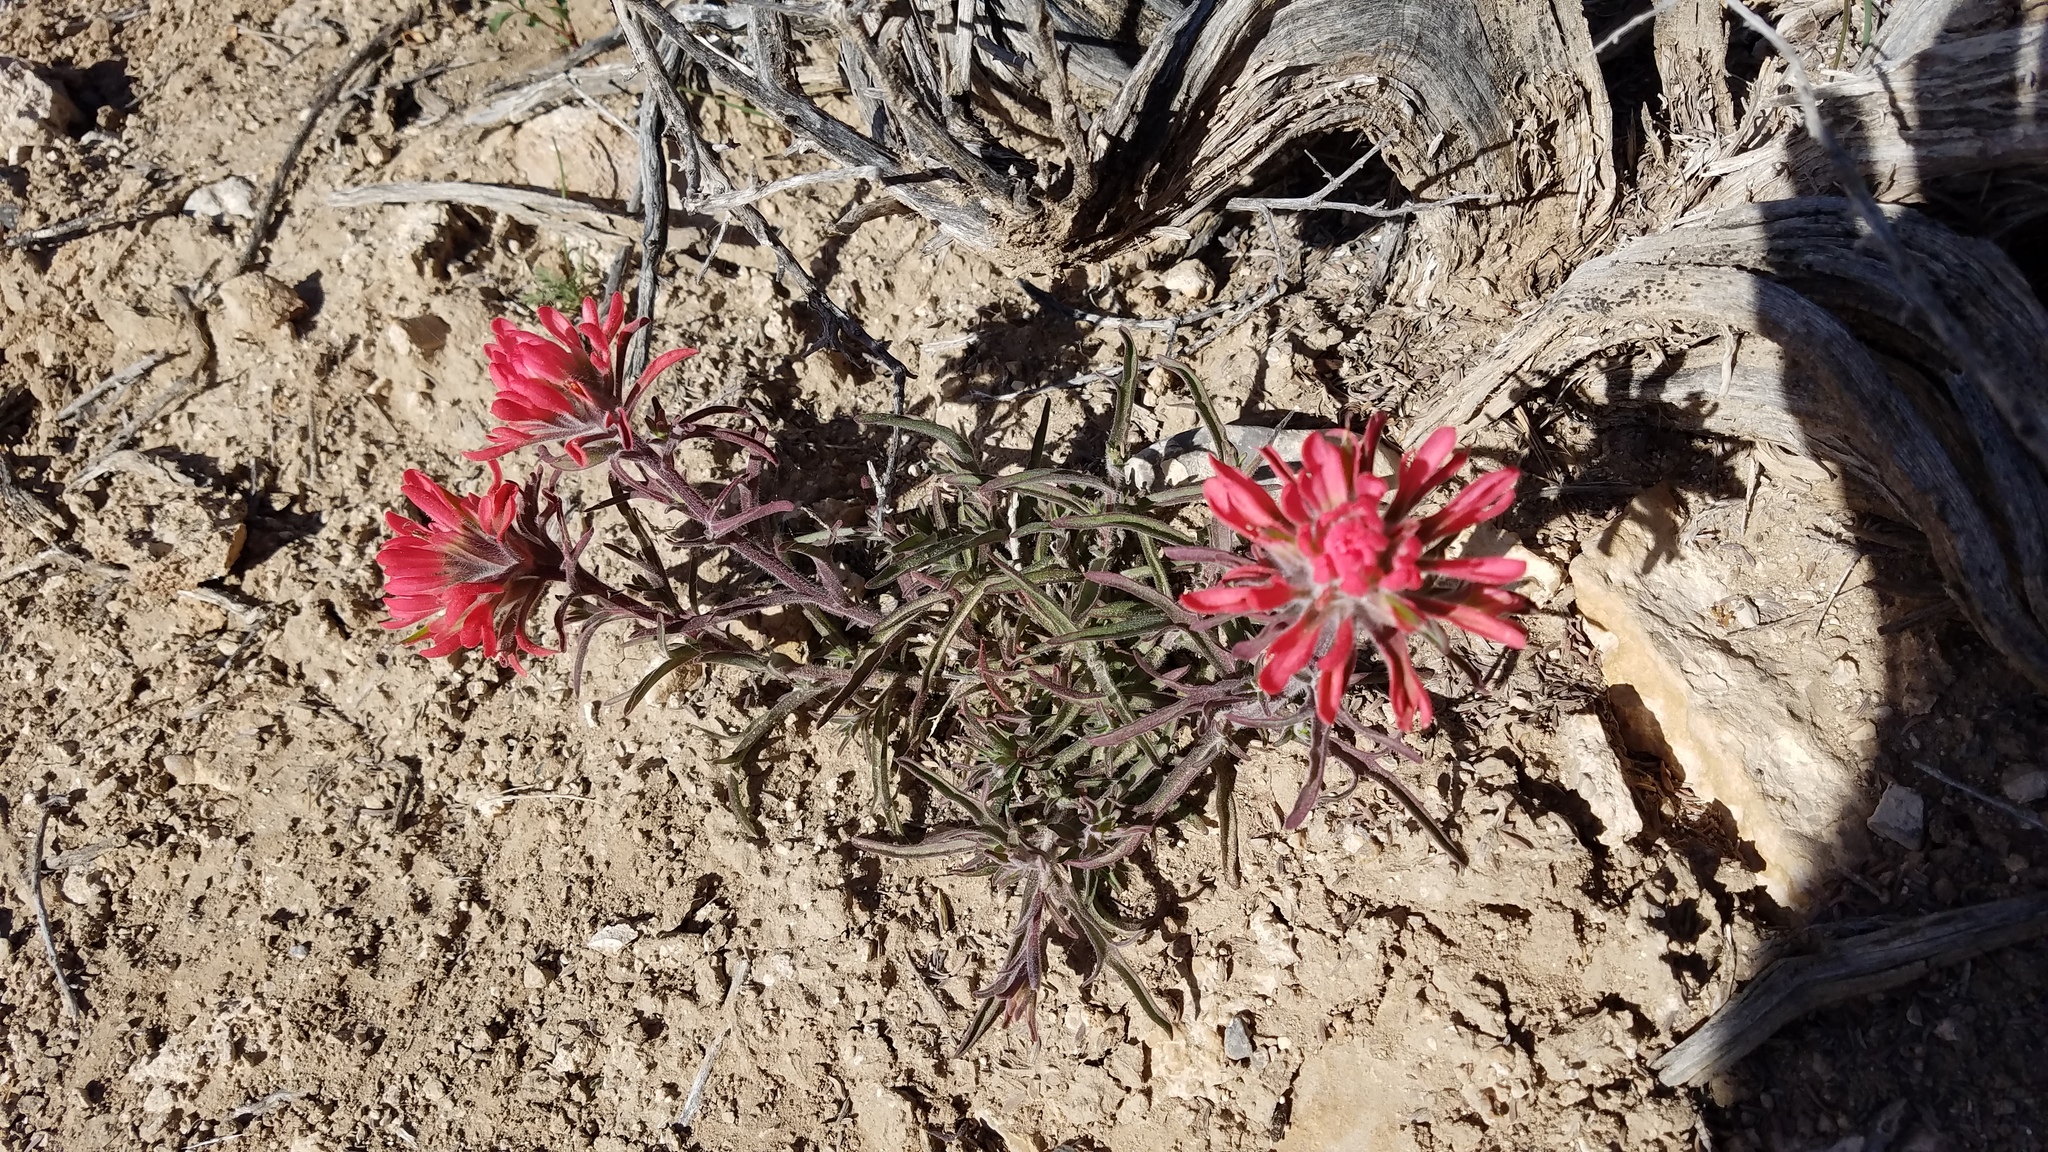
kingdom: Plantae
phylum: Tracheophyta
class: Magnoliopsida
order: Lamiales
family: Orobanchaceae
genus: Castilleja
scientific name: Castilleja chromosa
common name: Desert paintbrush
